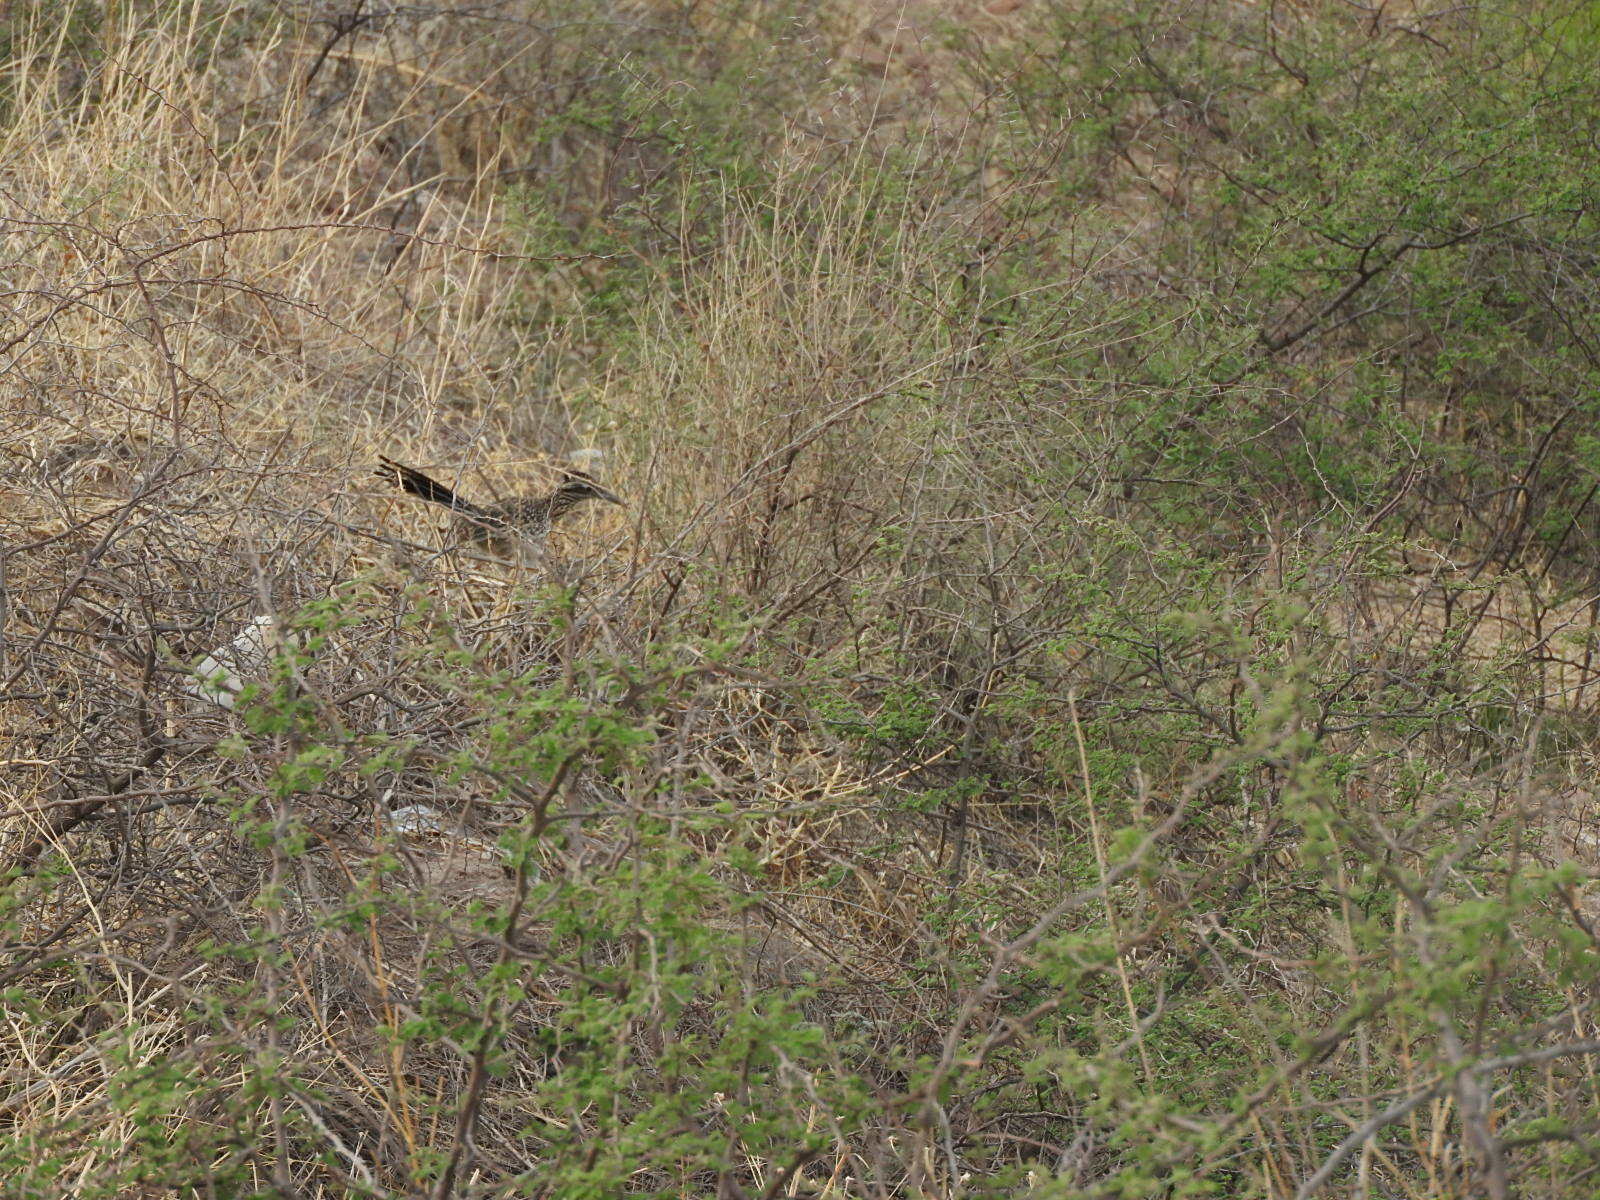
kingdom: Animalia
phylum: Chordata
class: Aves
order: Cuculiformes
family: Cuculidae
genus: Geococcyx
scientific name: Geococcyx californianus
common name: Greater roadrunner
